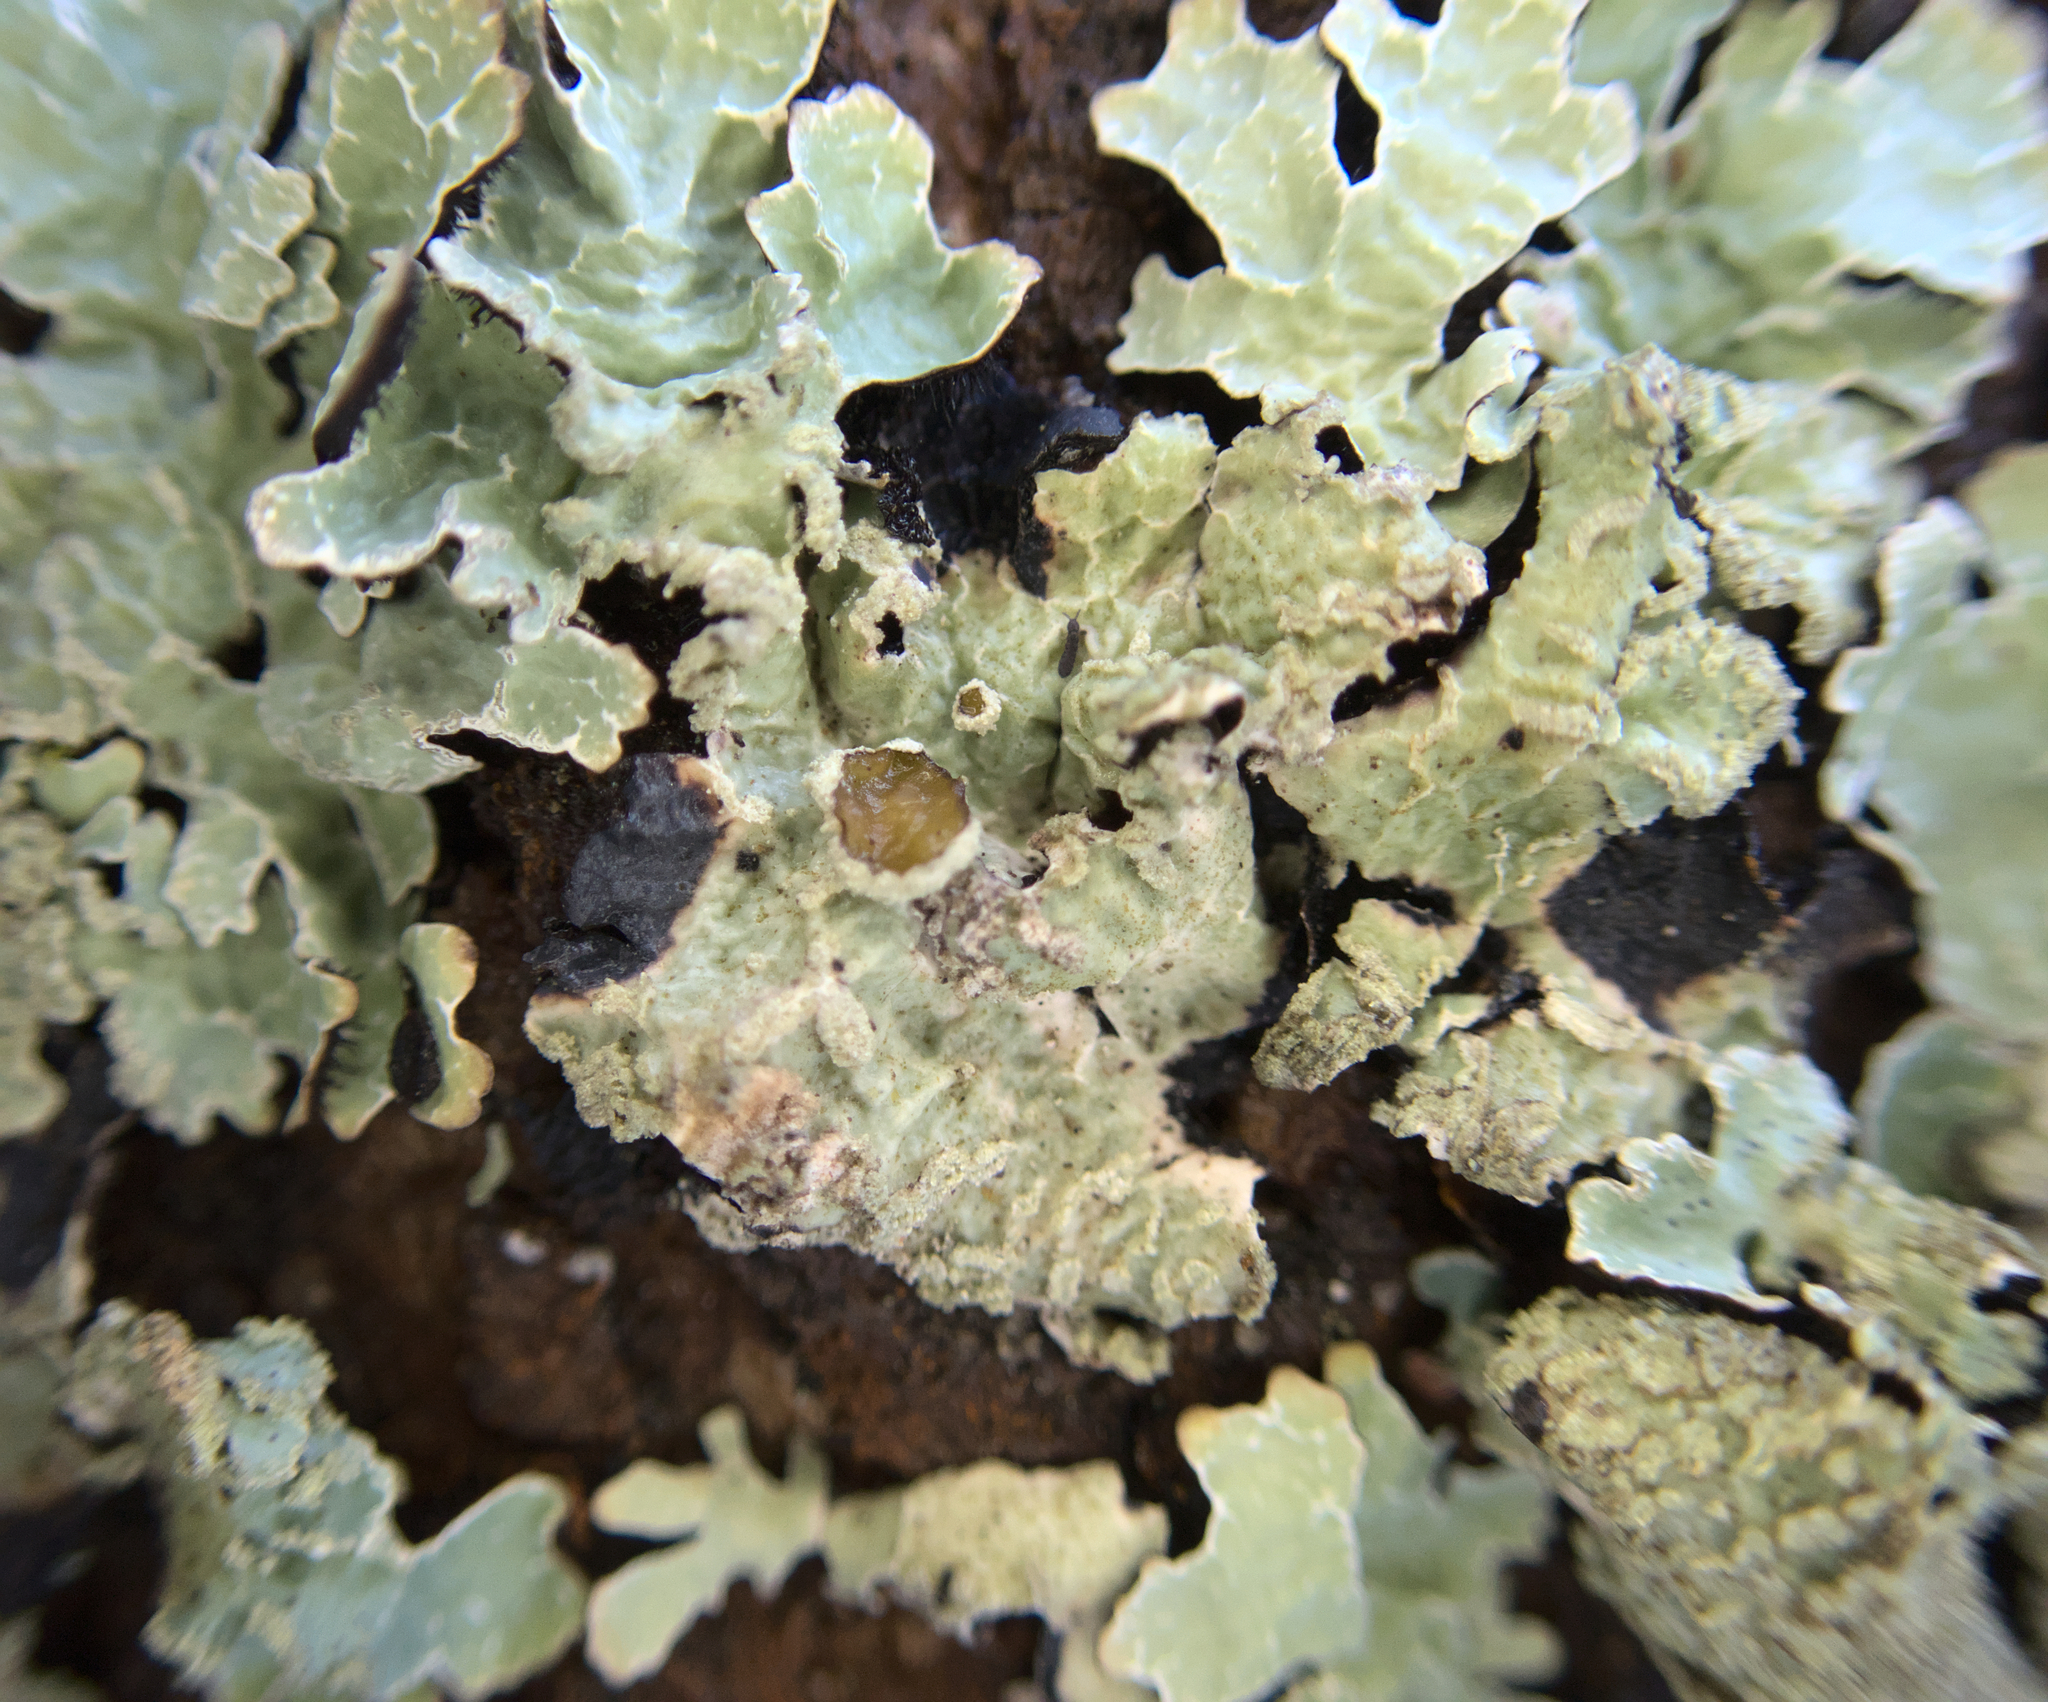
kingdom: Fungi
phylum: Ascomycota
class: Lecanoromycetes
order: Lecanorales
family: Parmeliaceae
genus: Parmelia
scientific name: Parmelia sulcata
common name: Netted shield lichen
